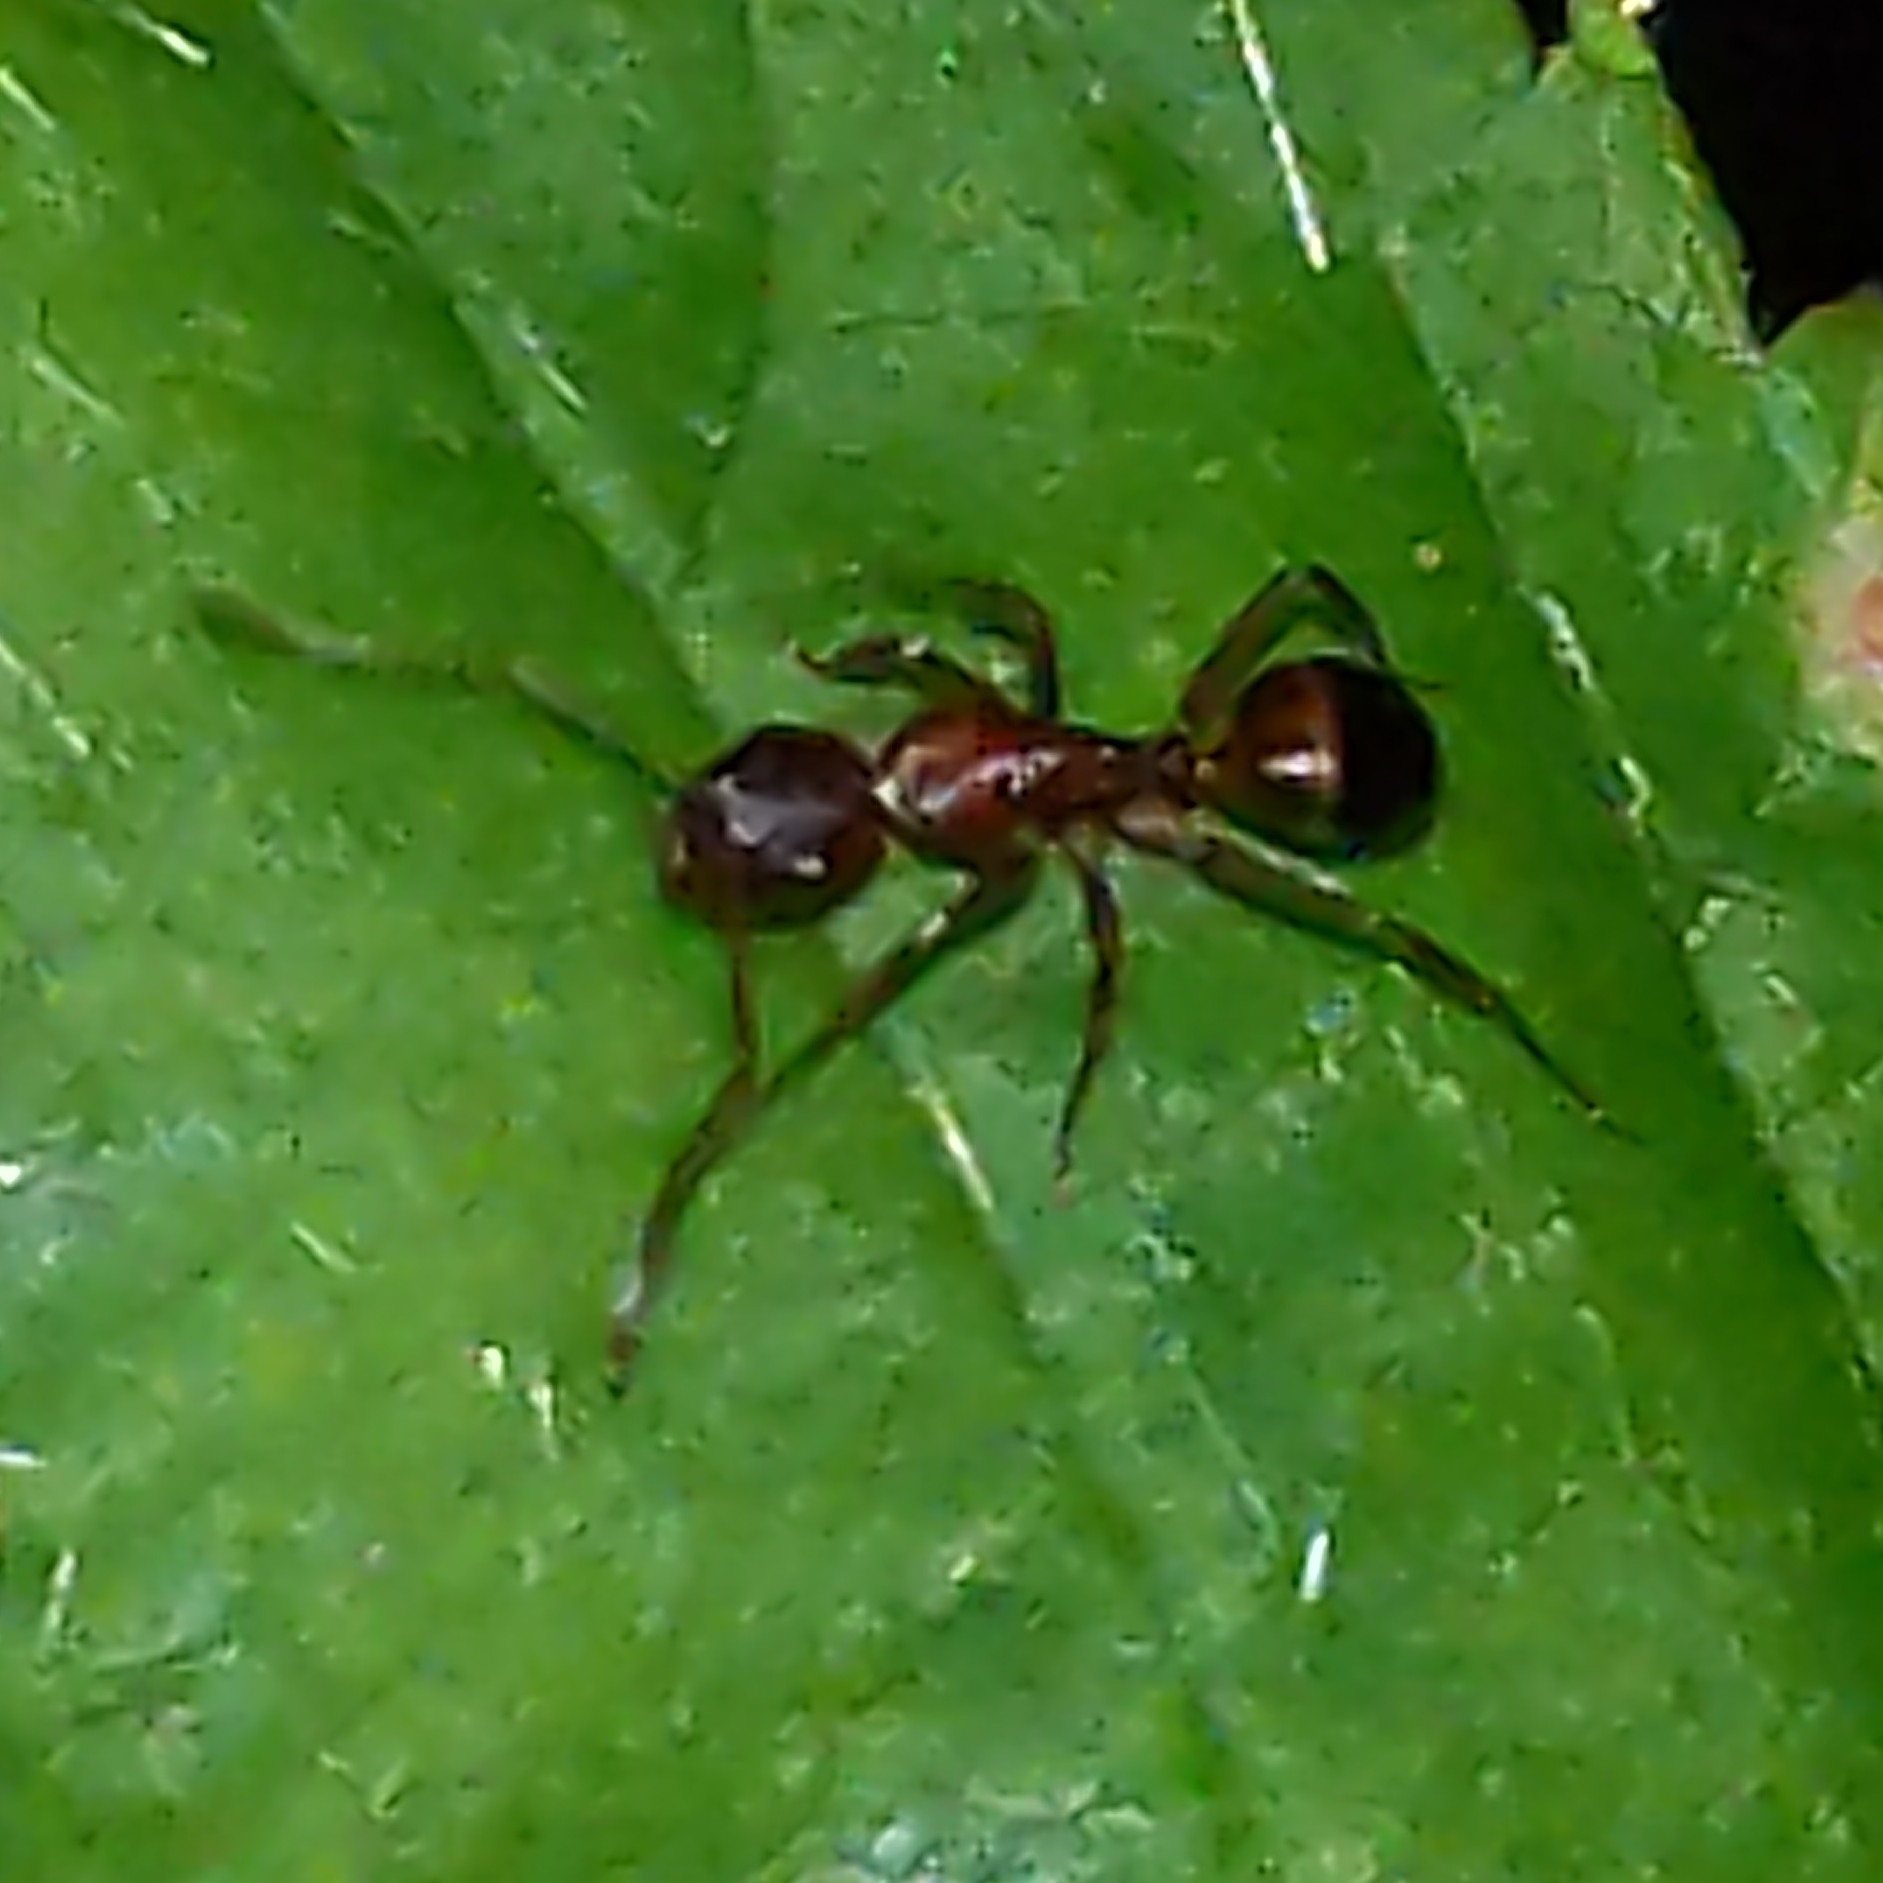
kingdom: Animalia
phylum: Arthropoda
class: Insecta
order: Hymenoptera
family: Formicidae
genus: Camponotus
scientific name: Camponotus subbarbatus
